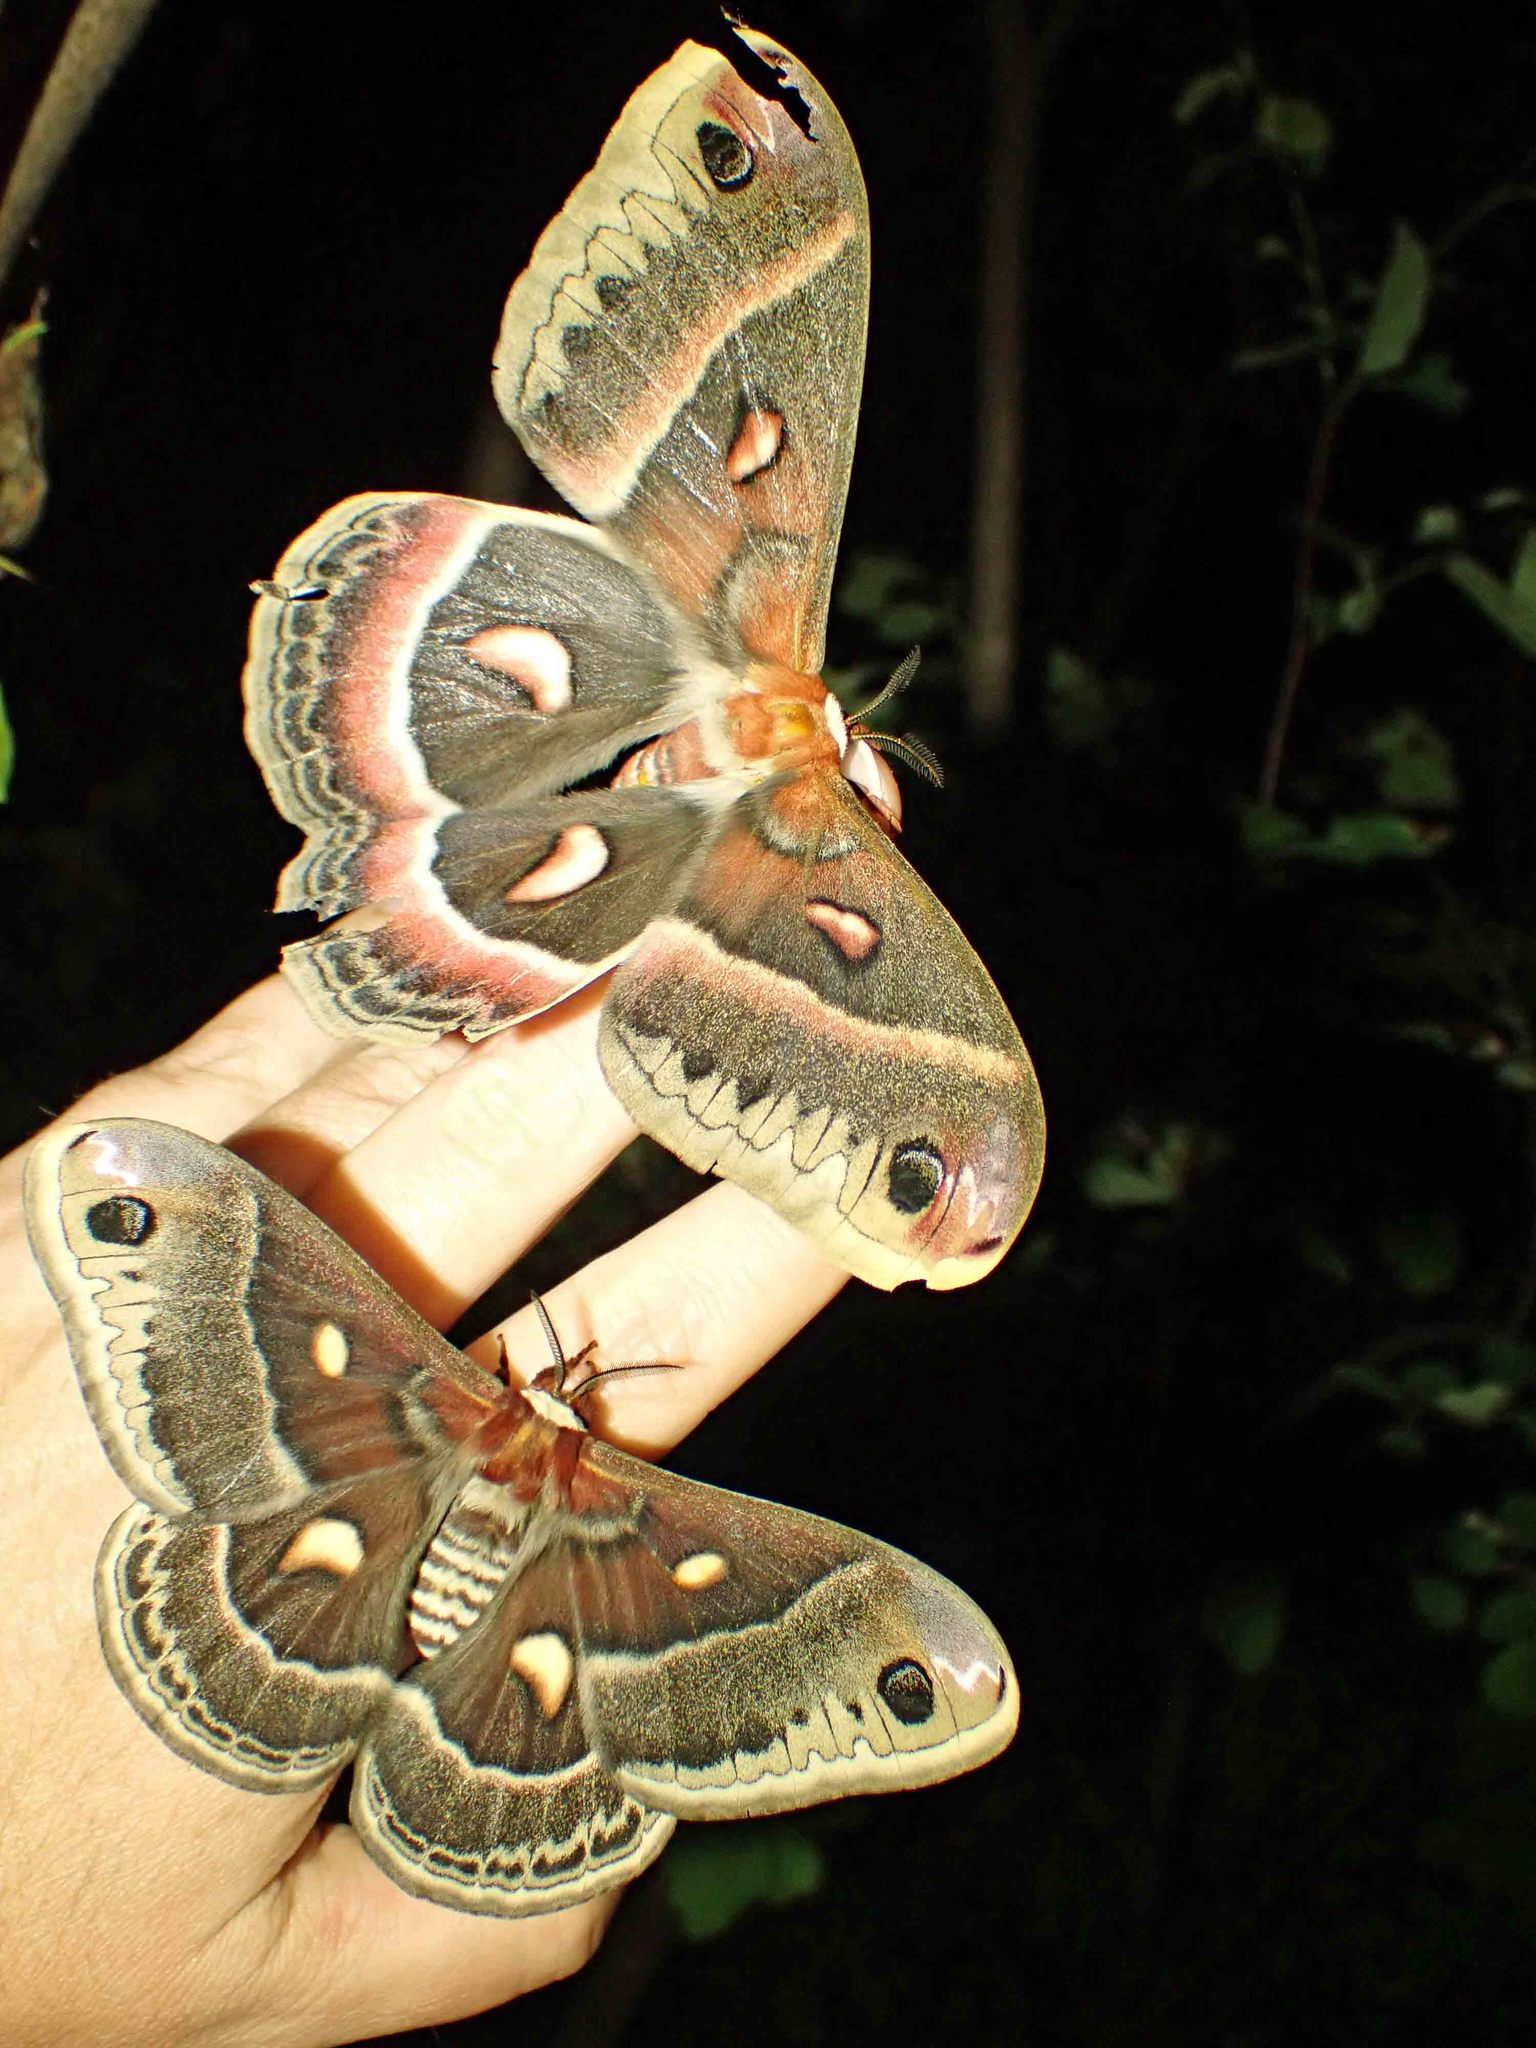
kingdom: Animalia
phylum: Arthropoda
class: Insecta
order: Lepidoptera
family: Saturniidae
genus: Hyalophora
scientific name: Hyalophora cecropia
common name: Cecropia silkmoth
